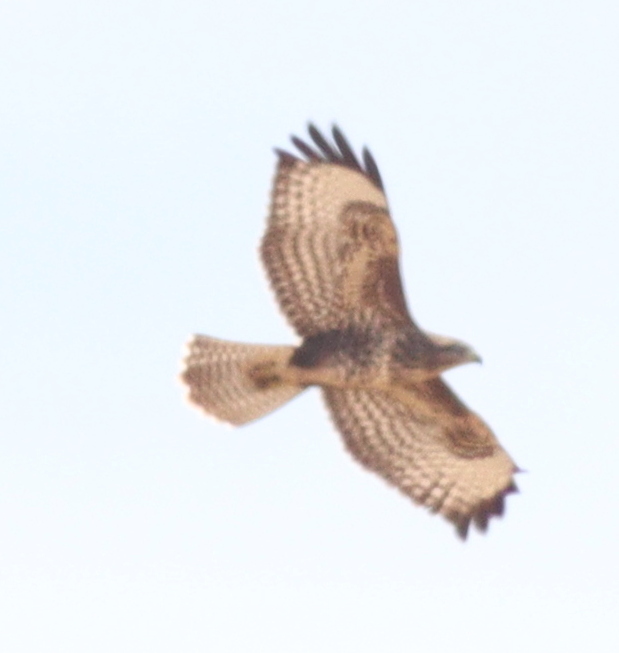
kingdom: Animalia
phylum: Chordata
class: Aves
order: Accipitriformes
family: Accipitridae
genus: Buteo
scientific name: Buteo buteo
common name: Common buzzard
